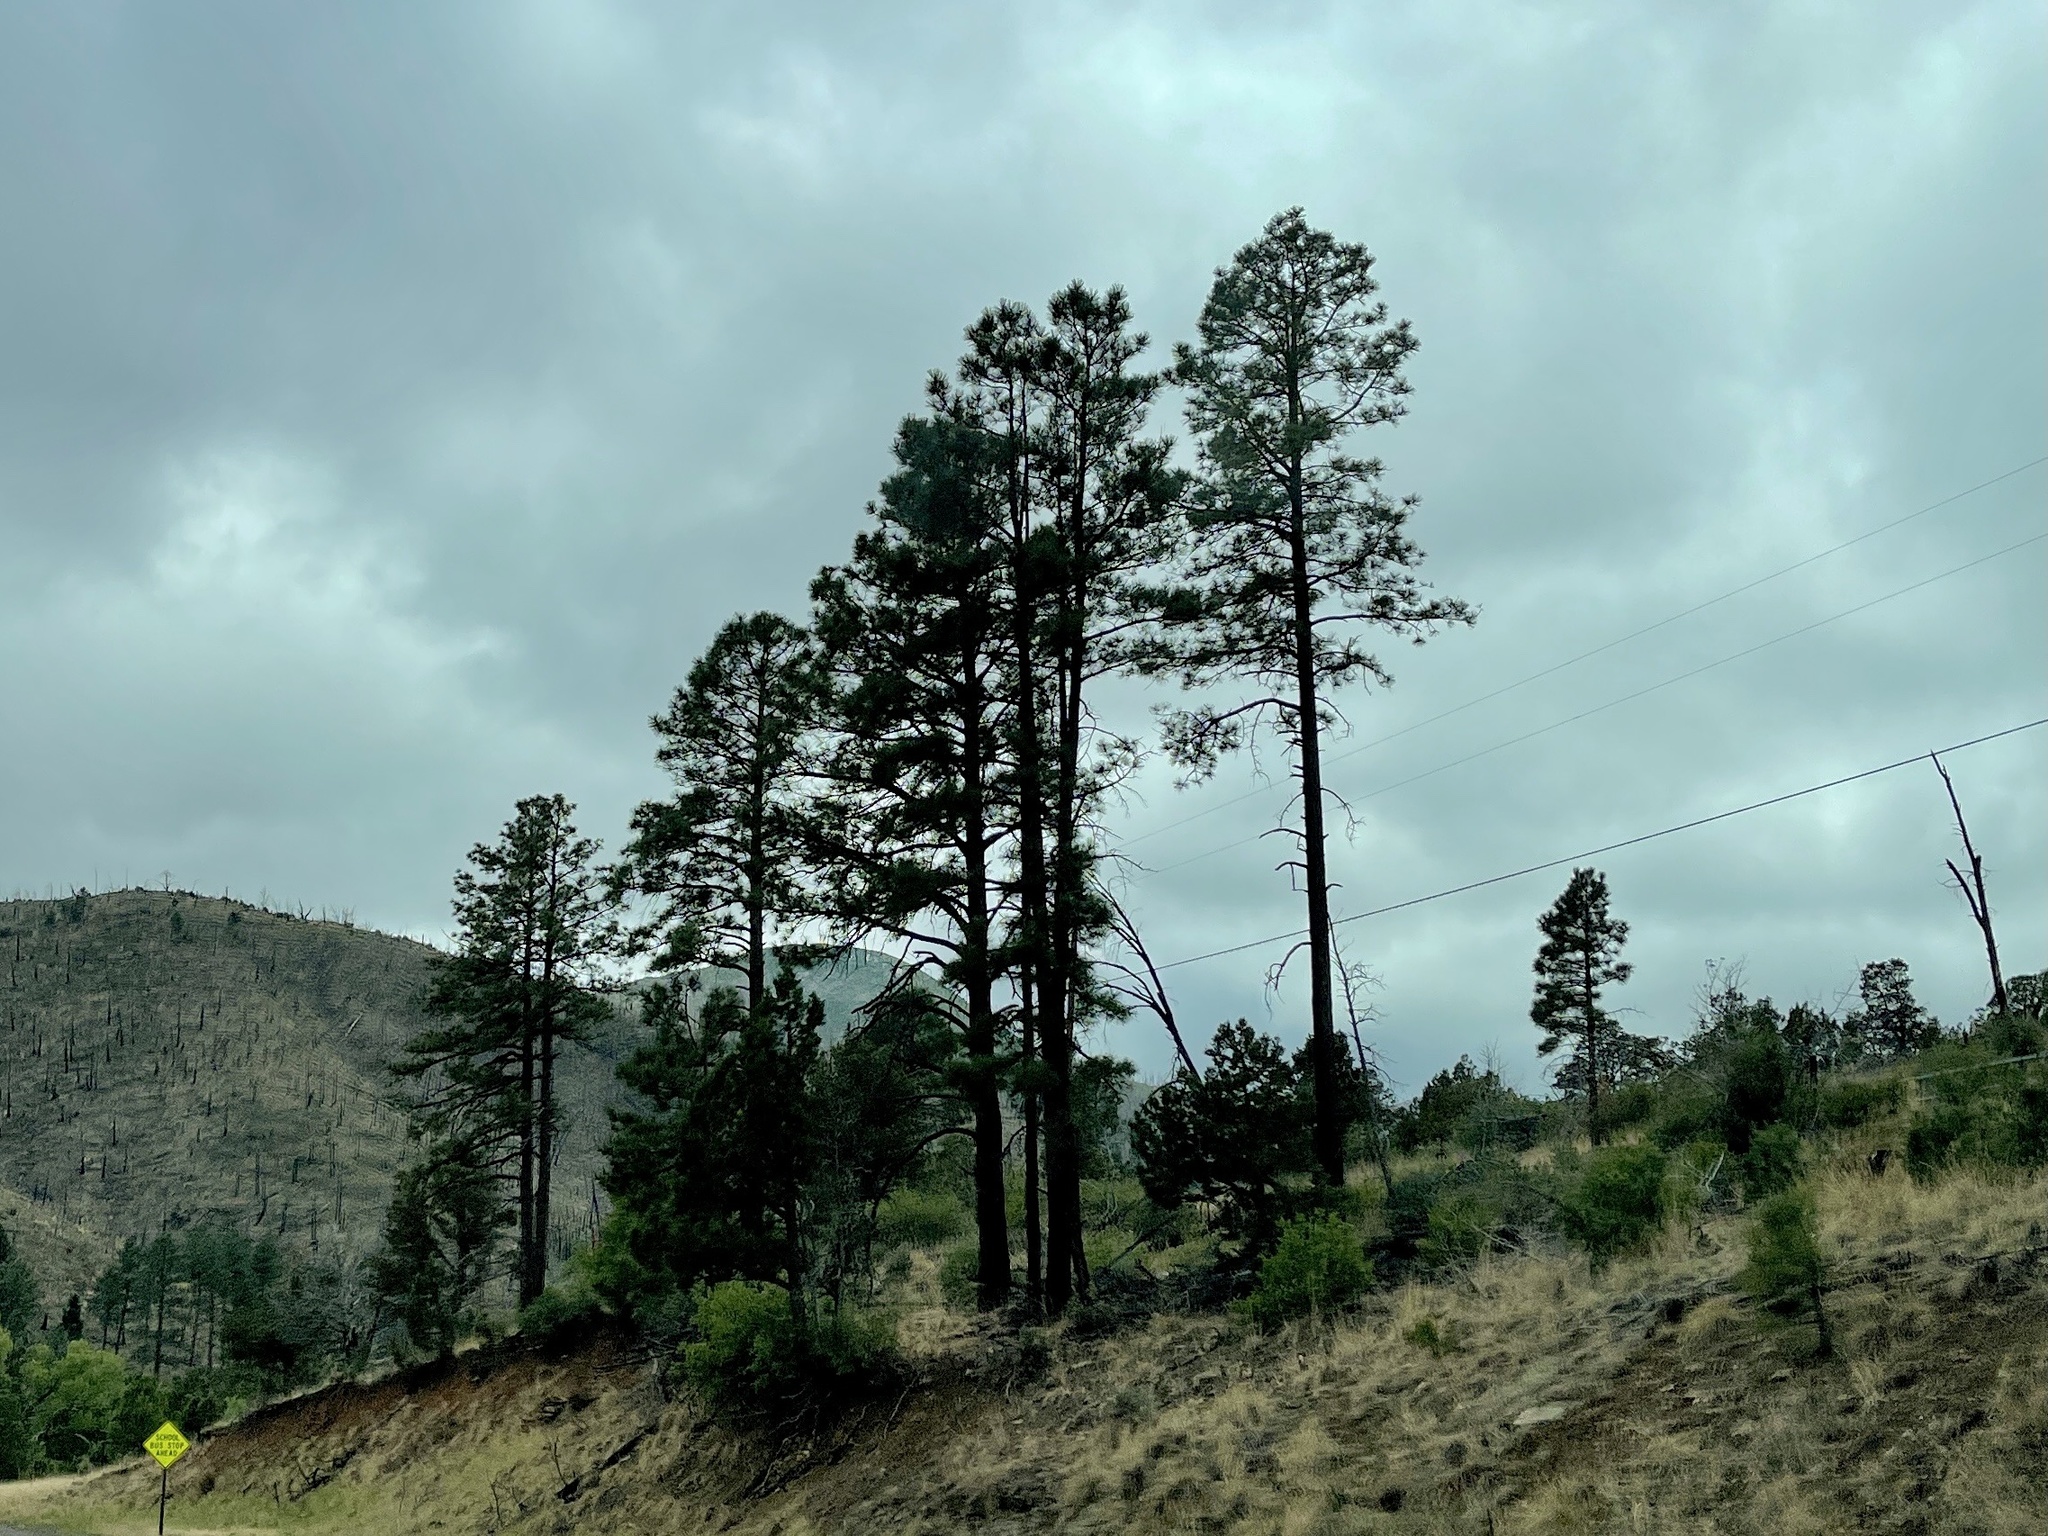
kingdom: Plantae
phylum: Tracheophyta
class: Pinopsida
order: Pinales
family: Pinaceae
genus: Pinus
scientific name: Pinus ponderosa
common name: Western yellow-pine
